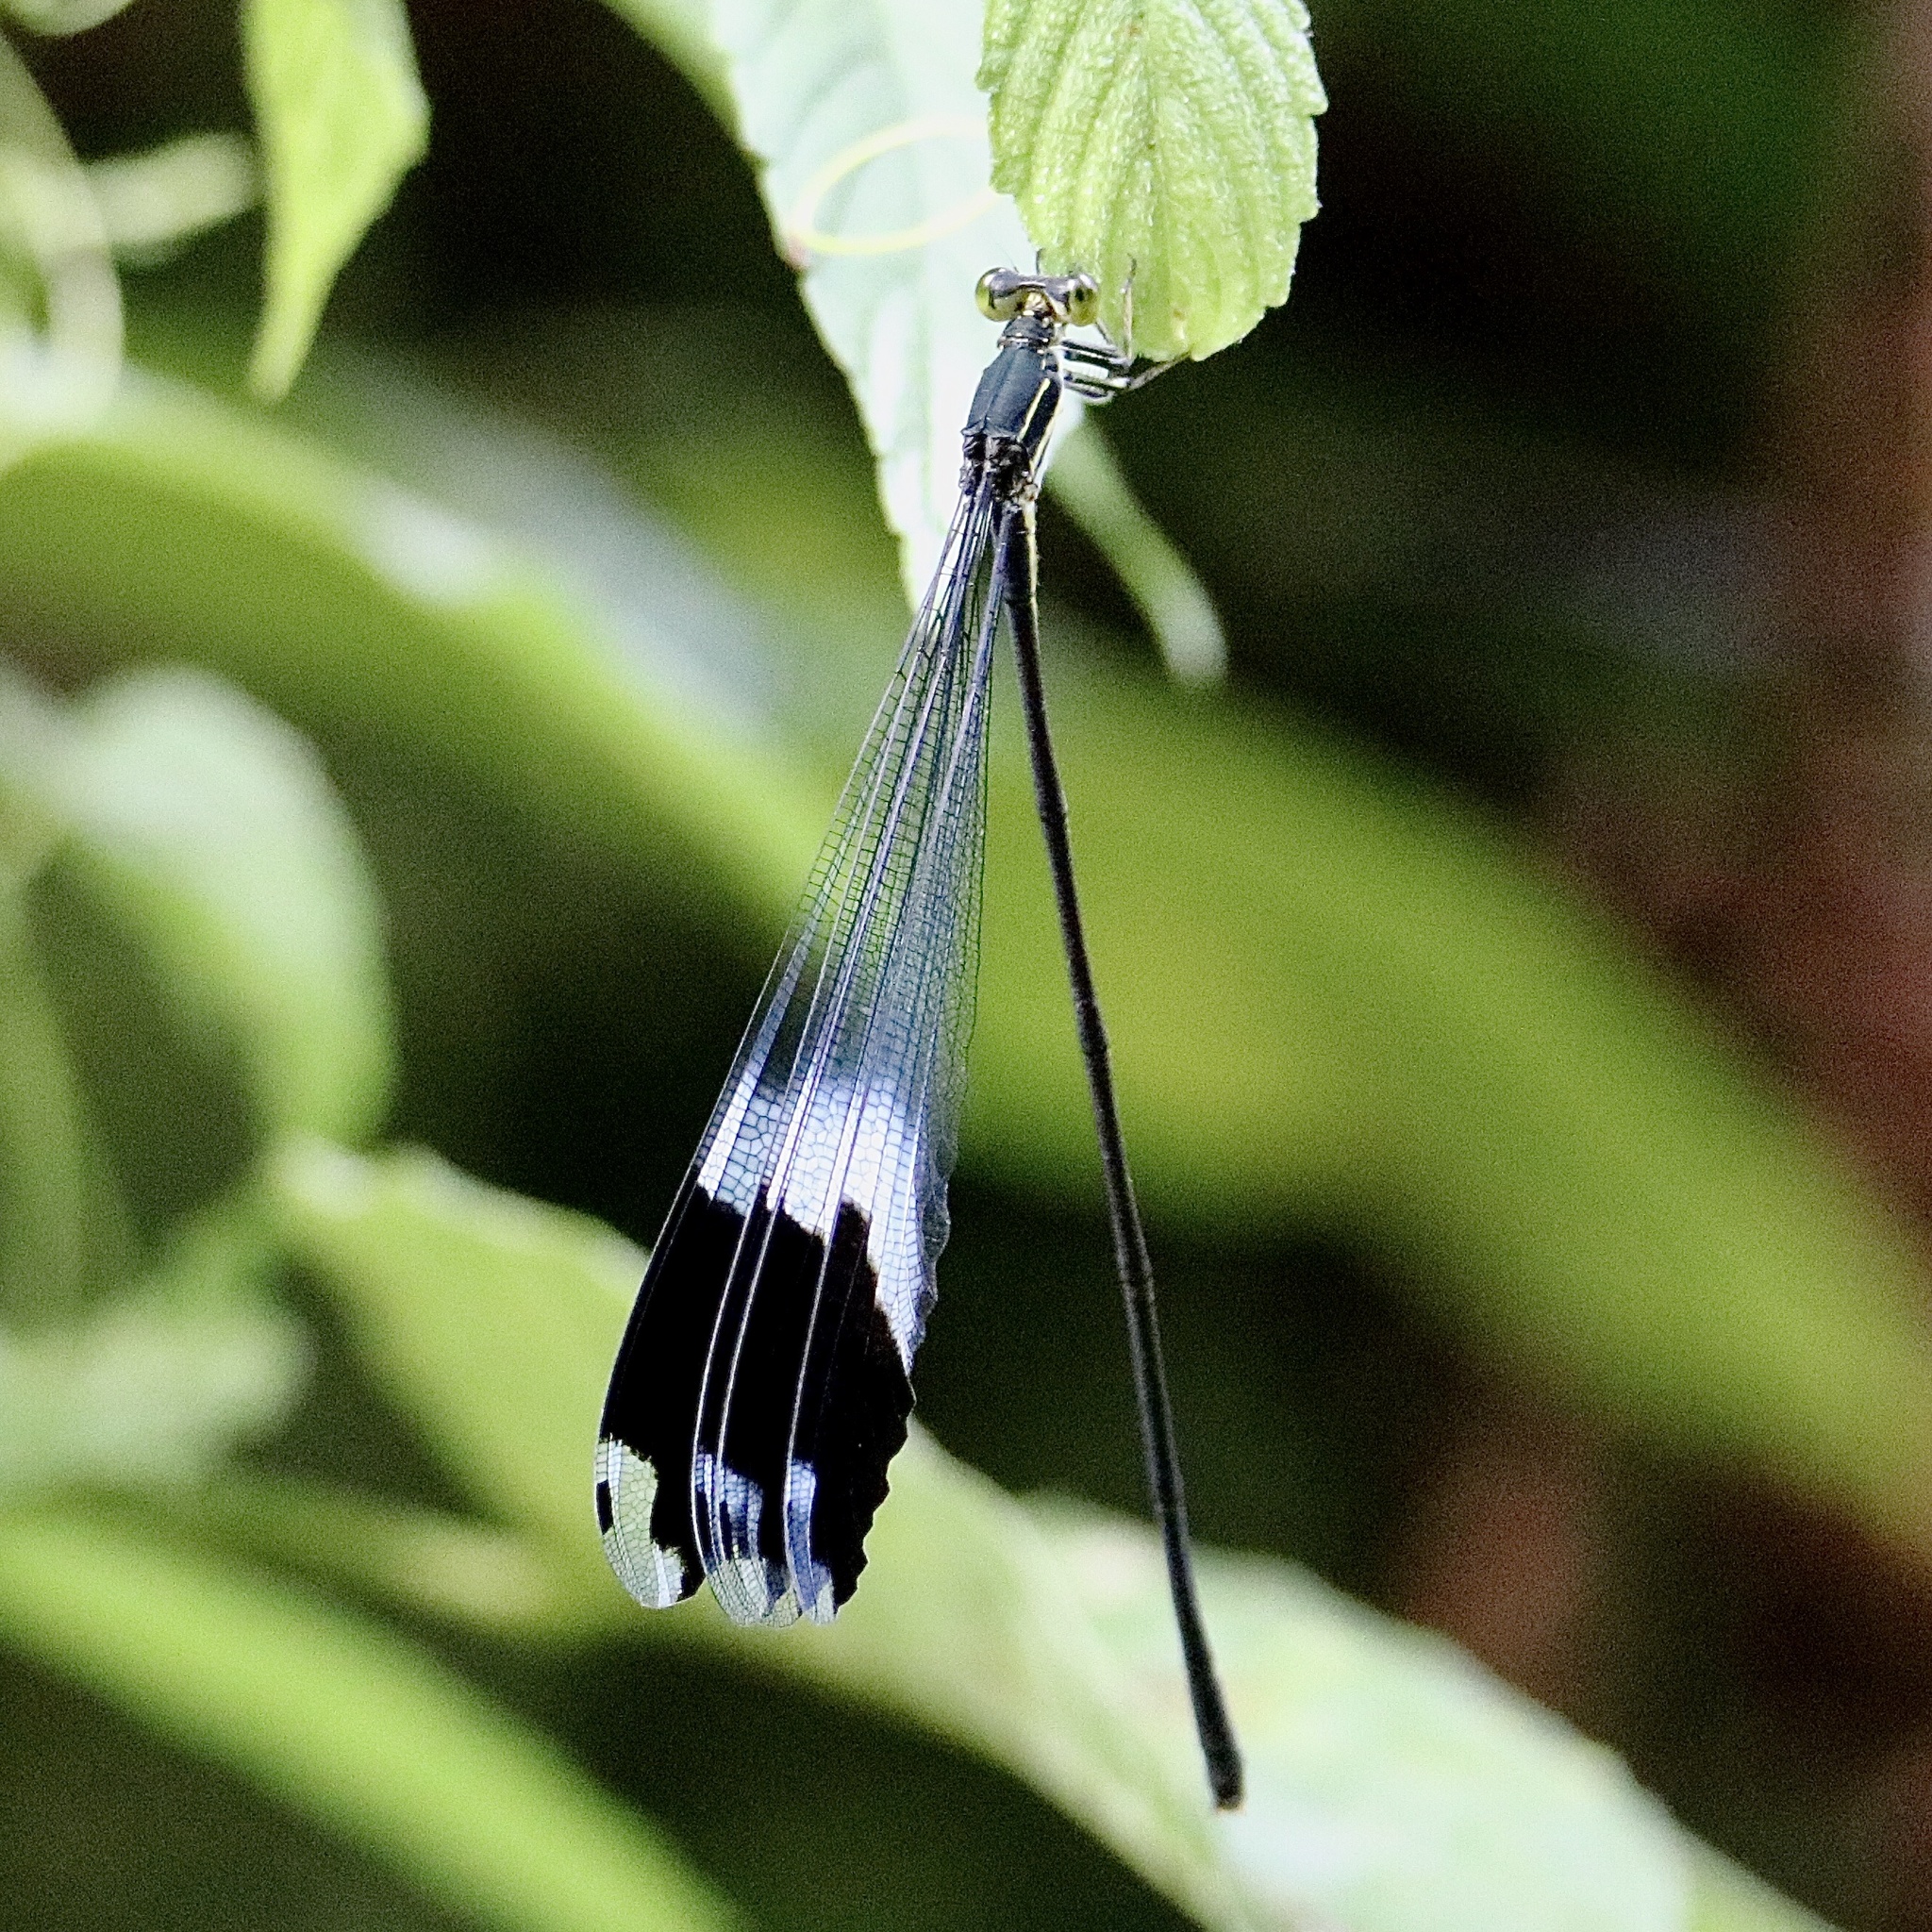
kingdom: Animalia
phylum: Arthropoda
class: Insecta
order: Odonata
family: Coenagrionidae
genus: Megaloprepus
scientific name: Megaloprepus caerulatus
